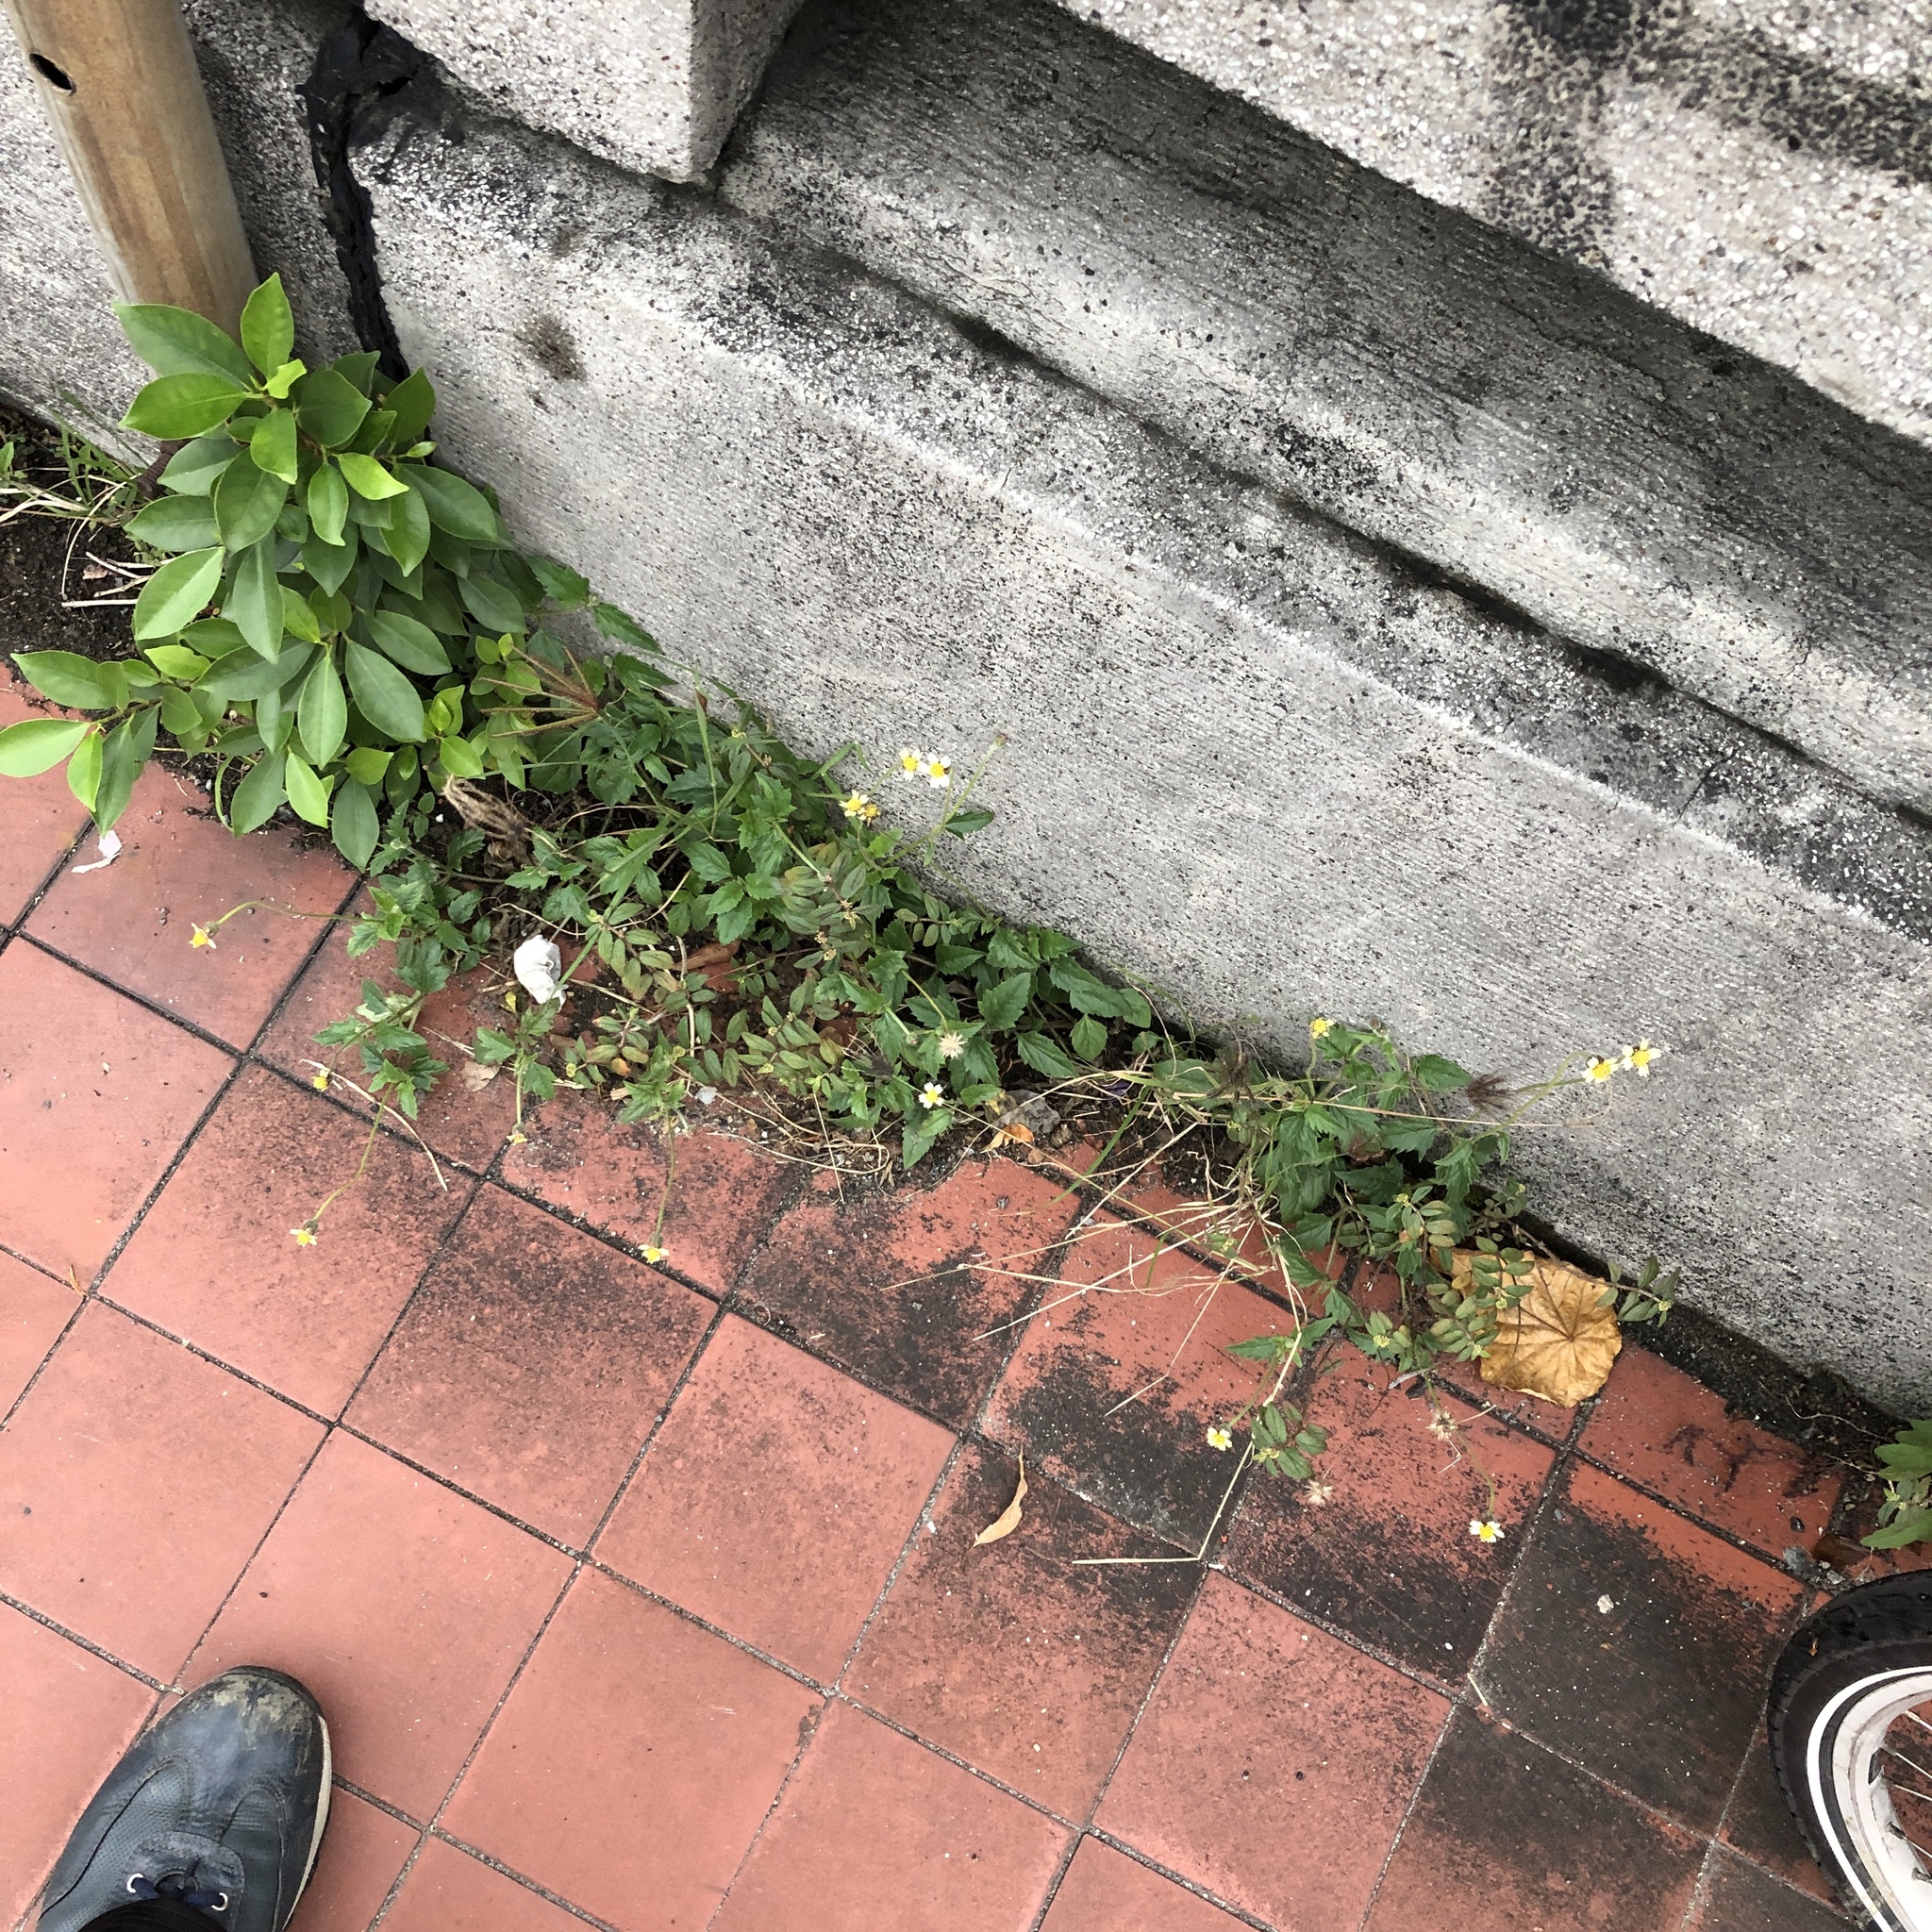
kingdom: Plantae
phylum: Tracheophyta
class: Magnoliopsida
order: Asterales
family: Asteraceae
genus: Tridax
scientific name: Tridax procumbens
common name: Coatbuttons
